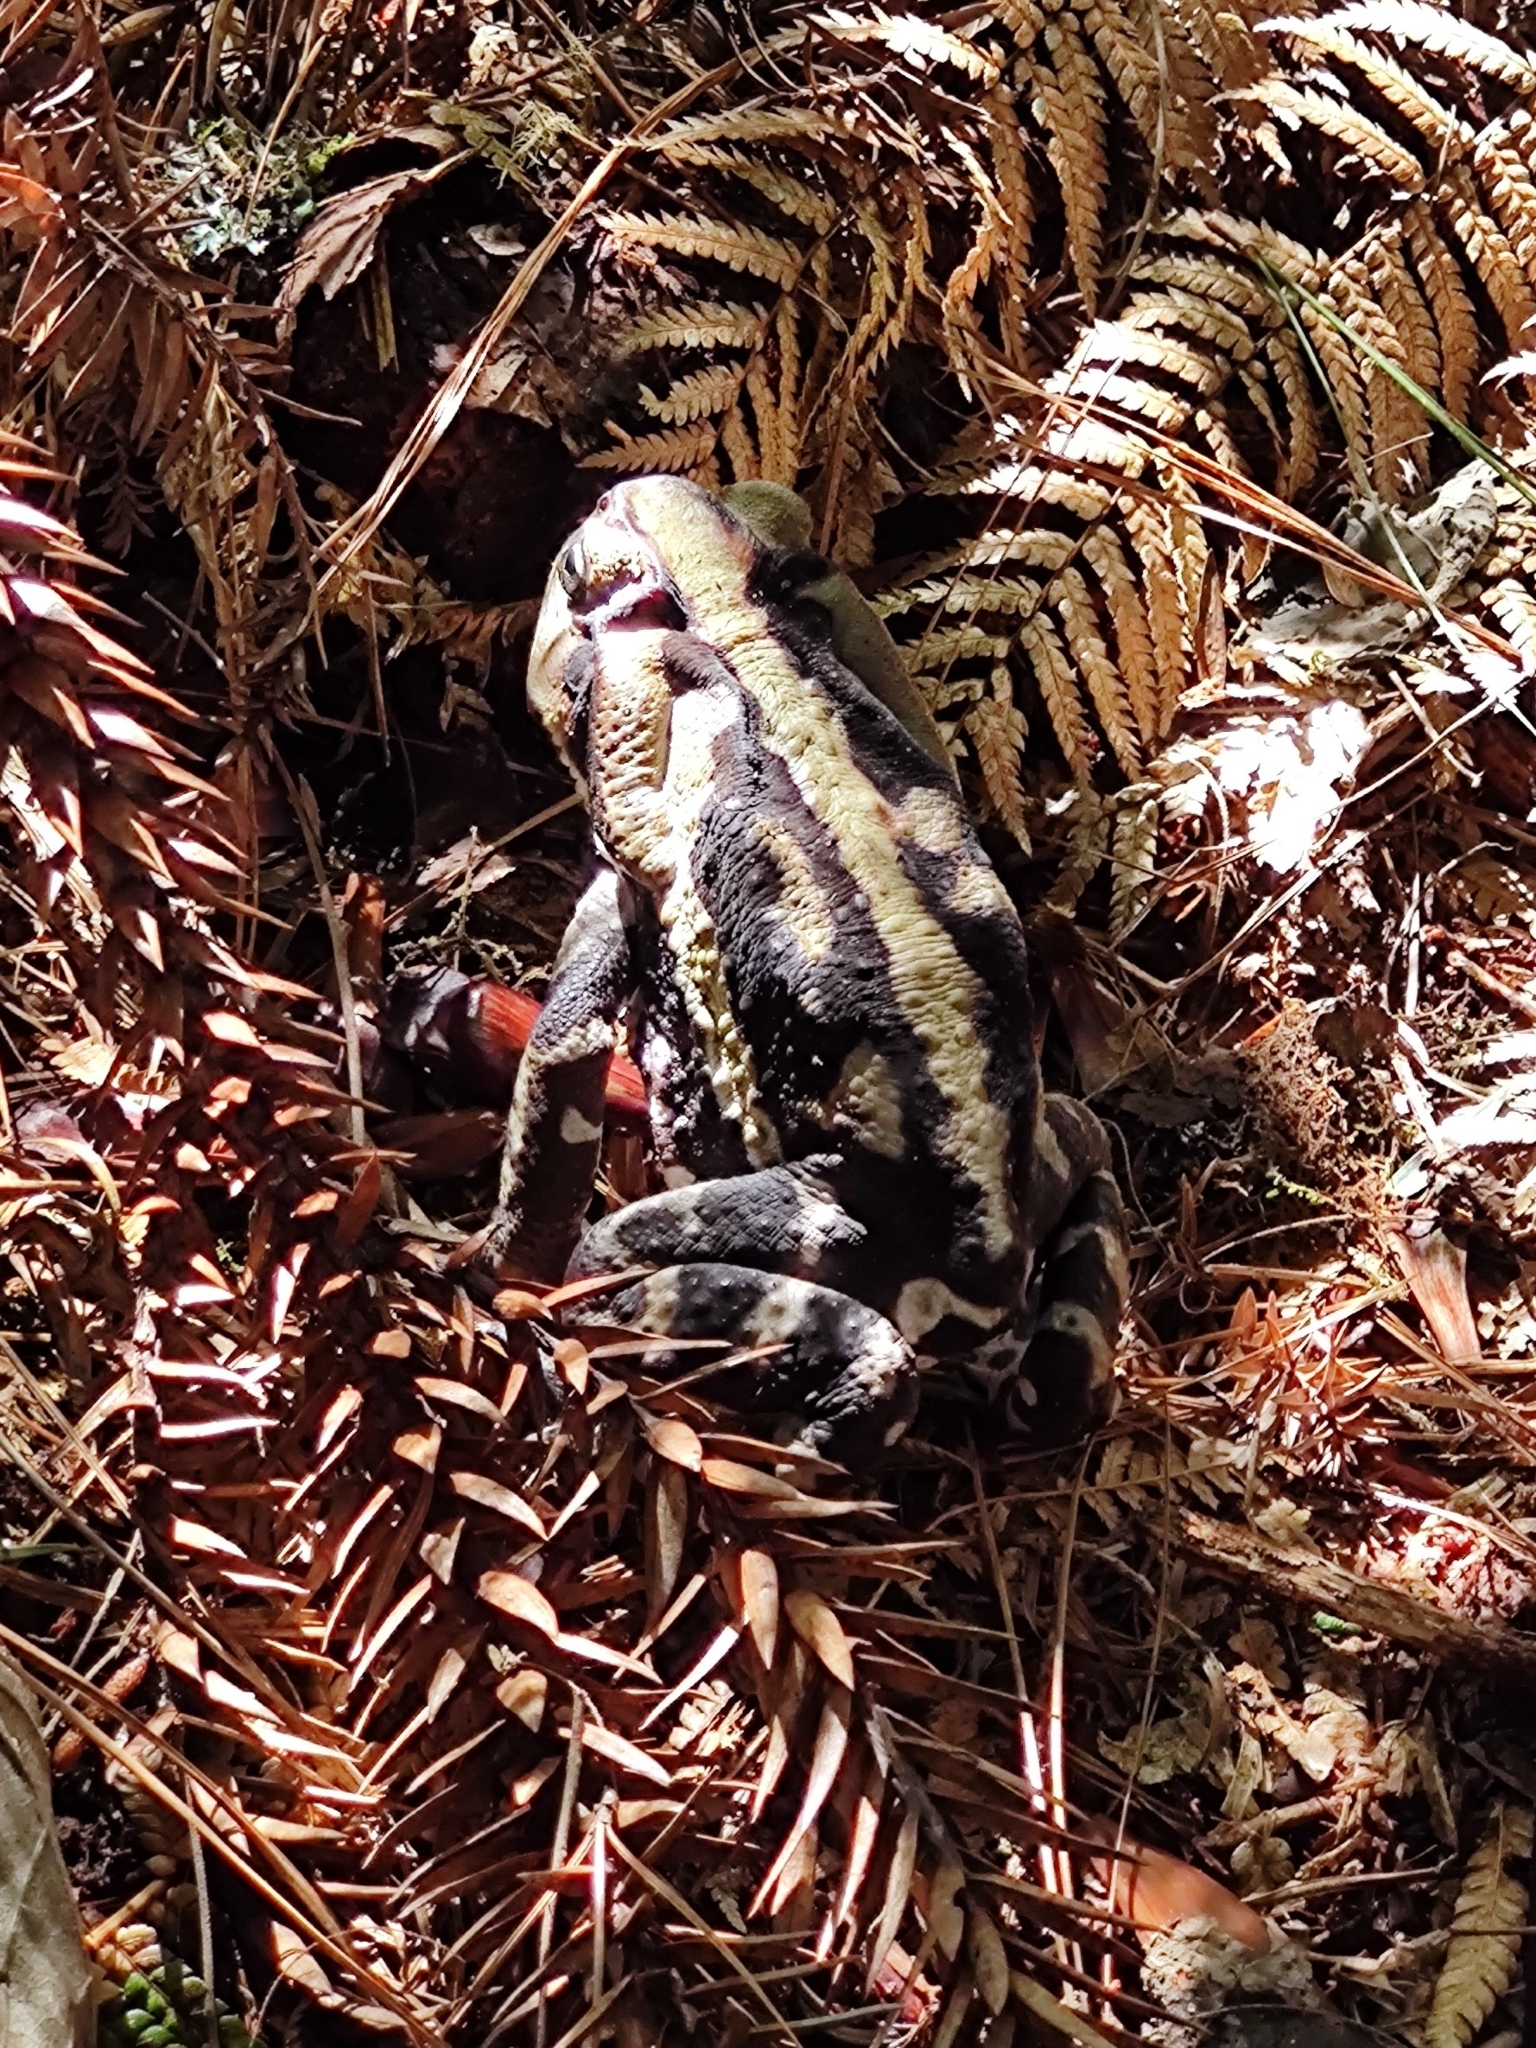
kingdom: Animalia
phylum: Chordata
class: Amphibia
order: Anura
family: Bufonidae
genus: Rhinella
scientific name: Rhinella icterica
